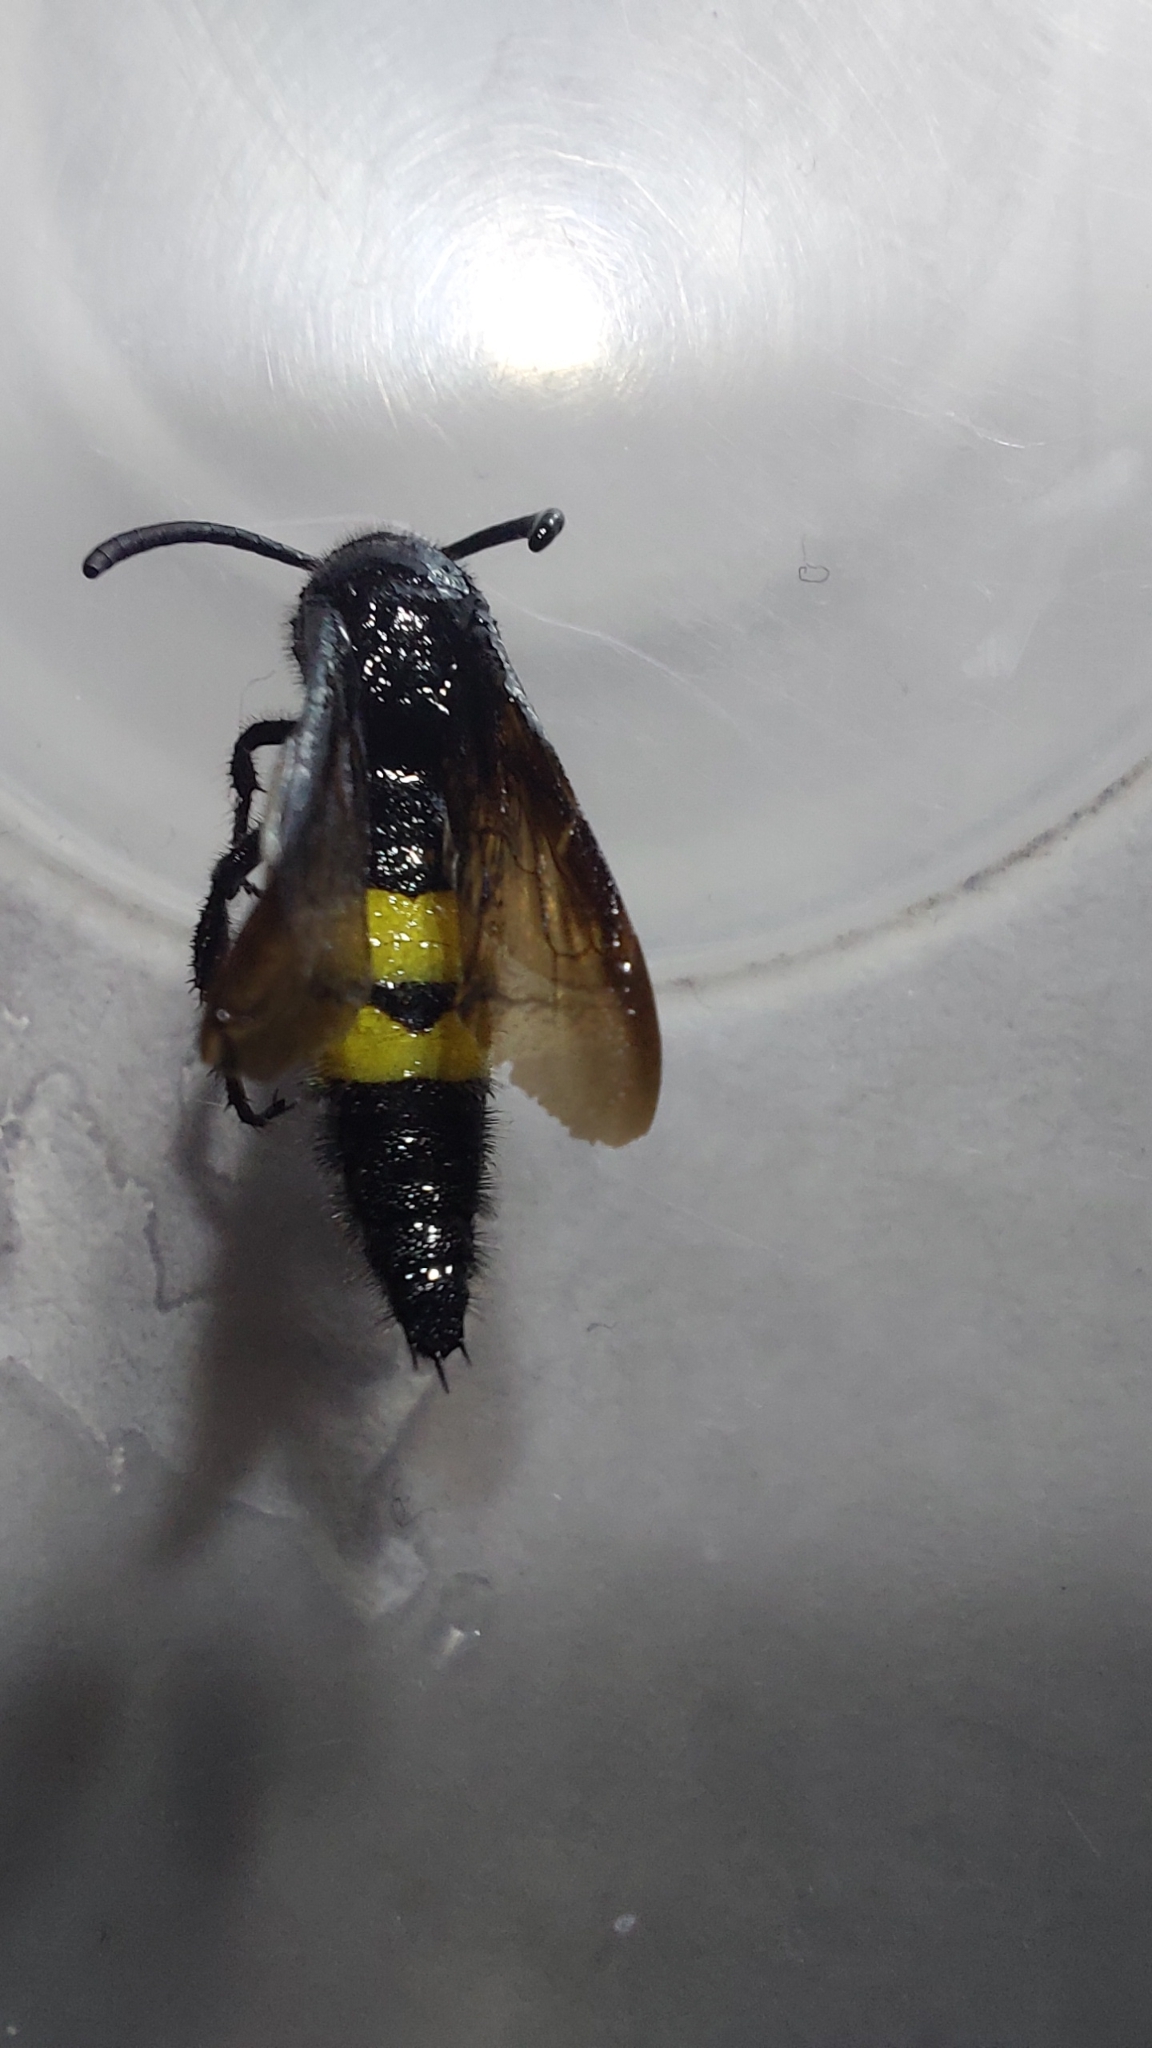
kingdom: Animalia
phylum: Arthropoda
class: Insecta
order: Hymenoptera
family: Scoliidae
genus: Scolia
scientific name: Scolia hirta
